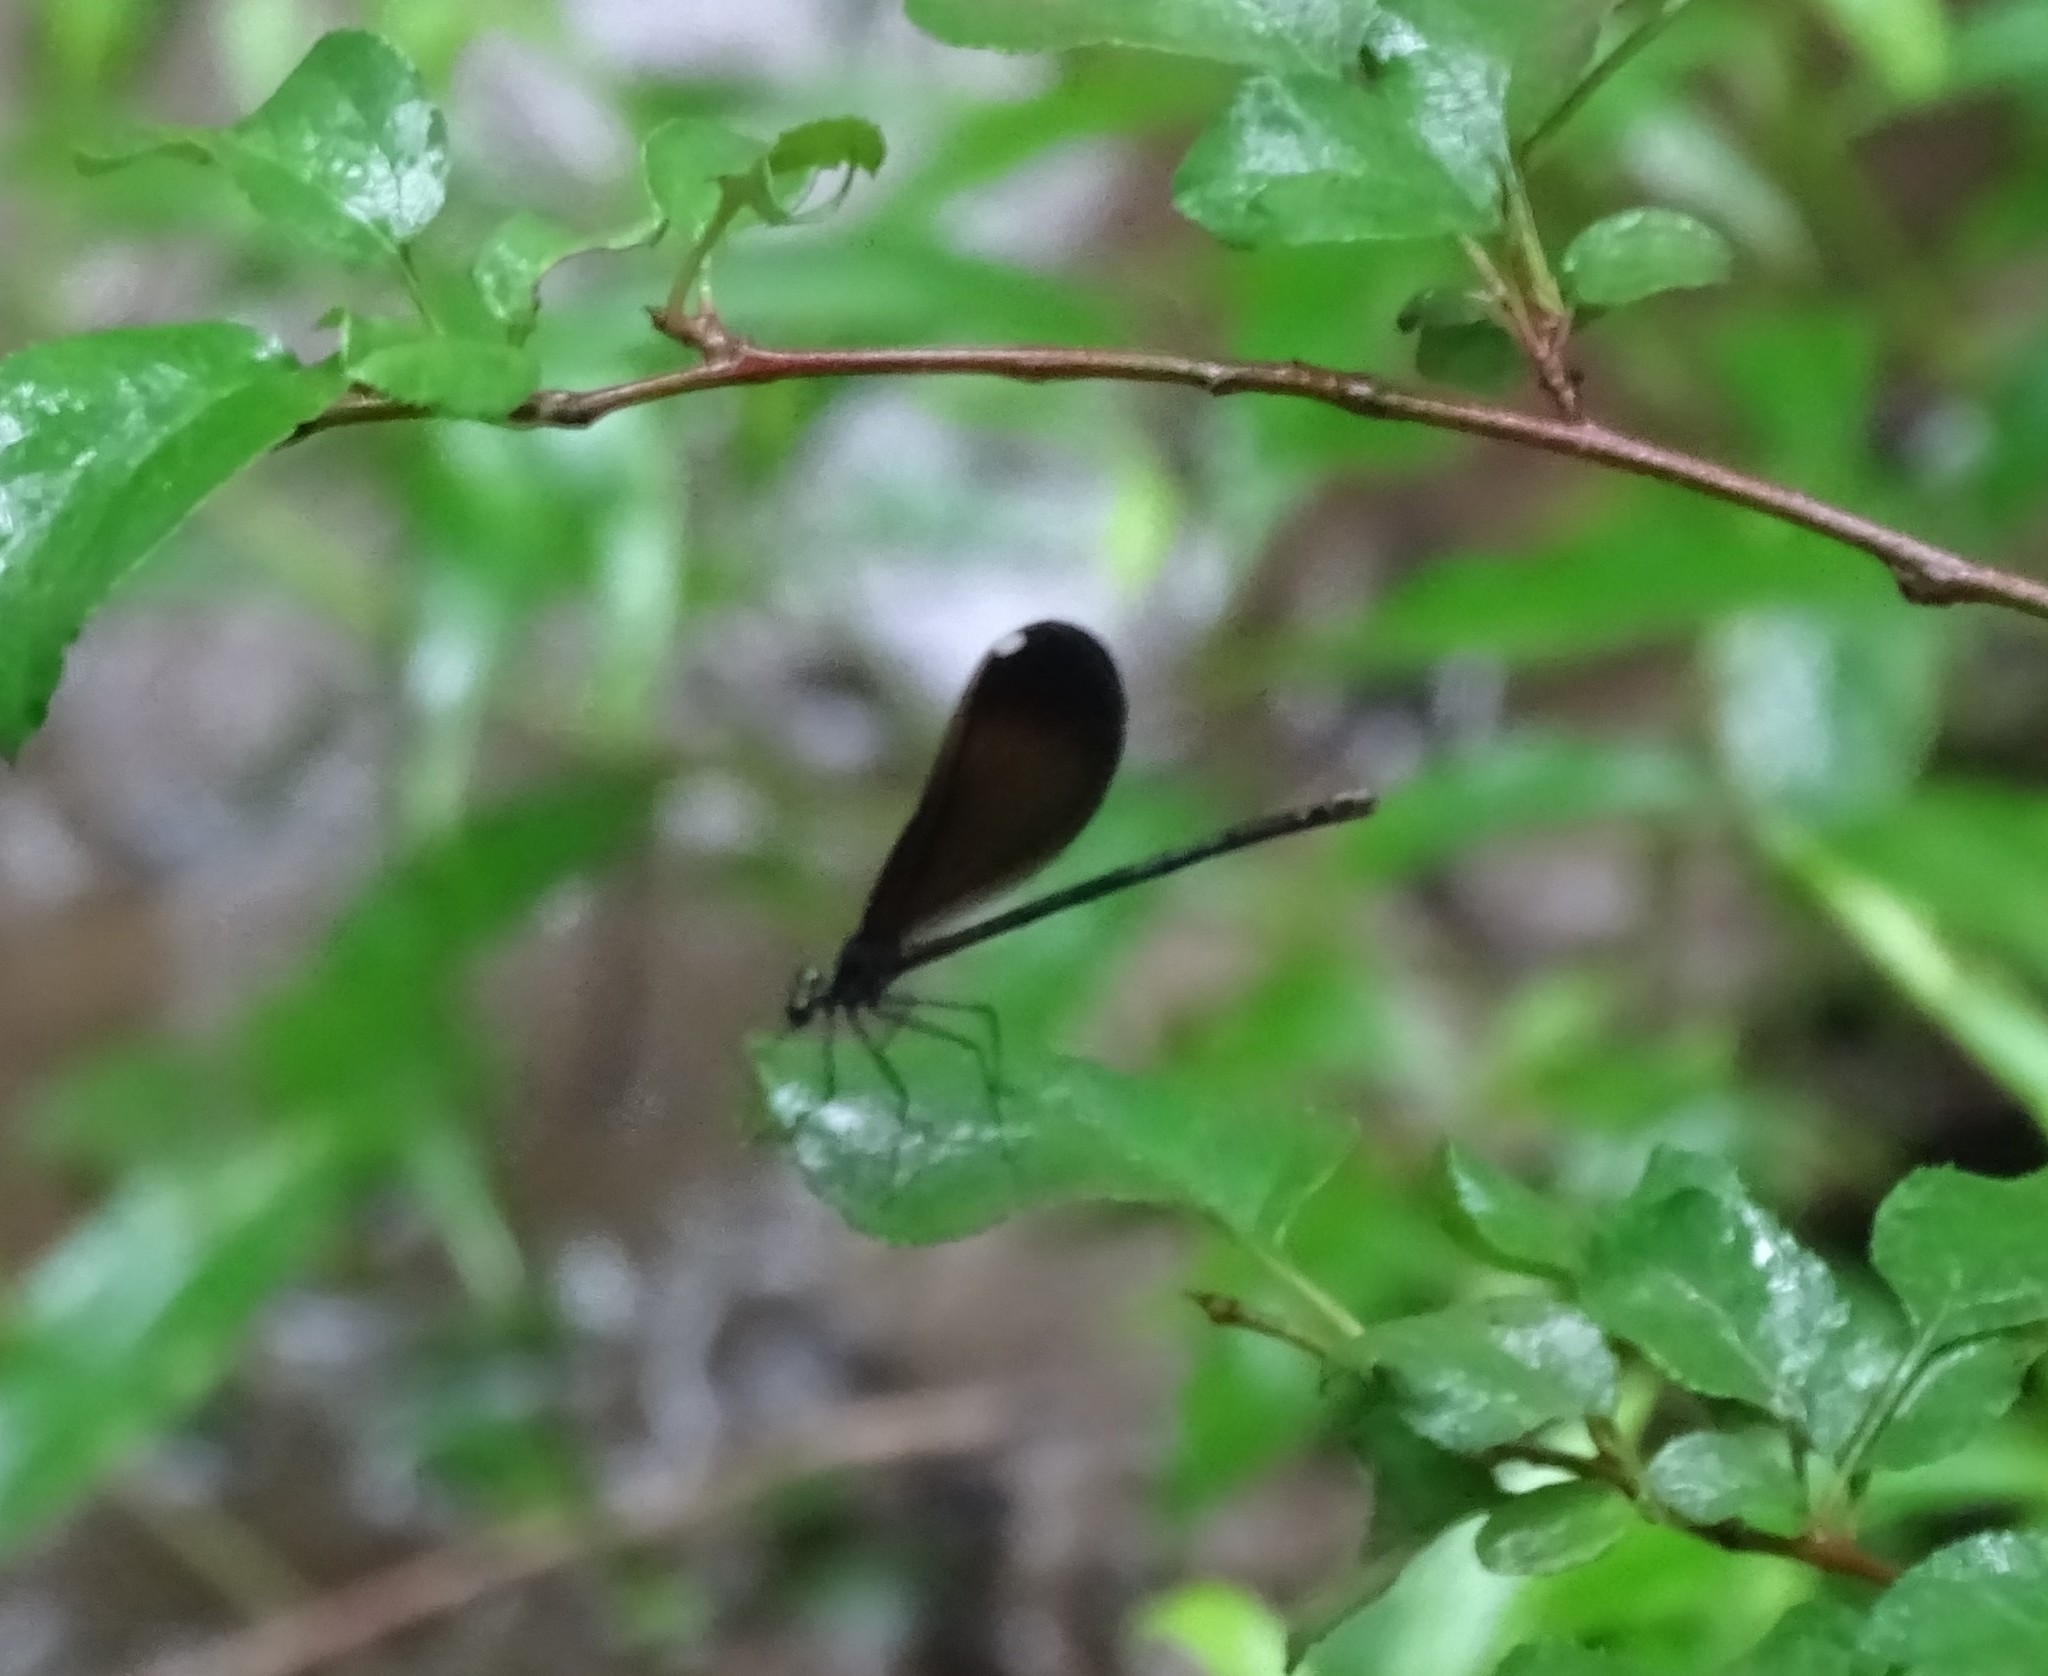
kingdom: Animalia
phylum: Arthropoda
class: Insecta
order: Odonata
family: Calopterygidae
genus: Calopteryx
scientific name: Calopteryx maculata
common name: Ebony jewelwing
